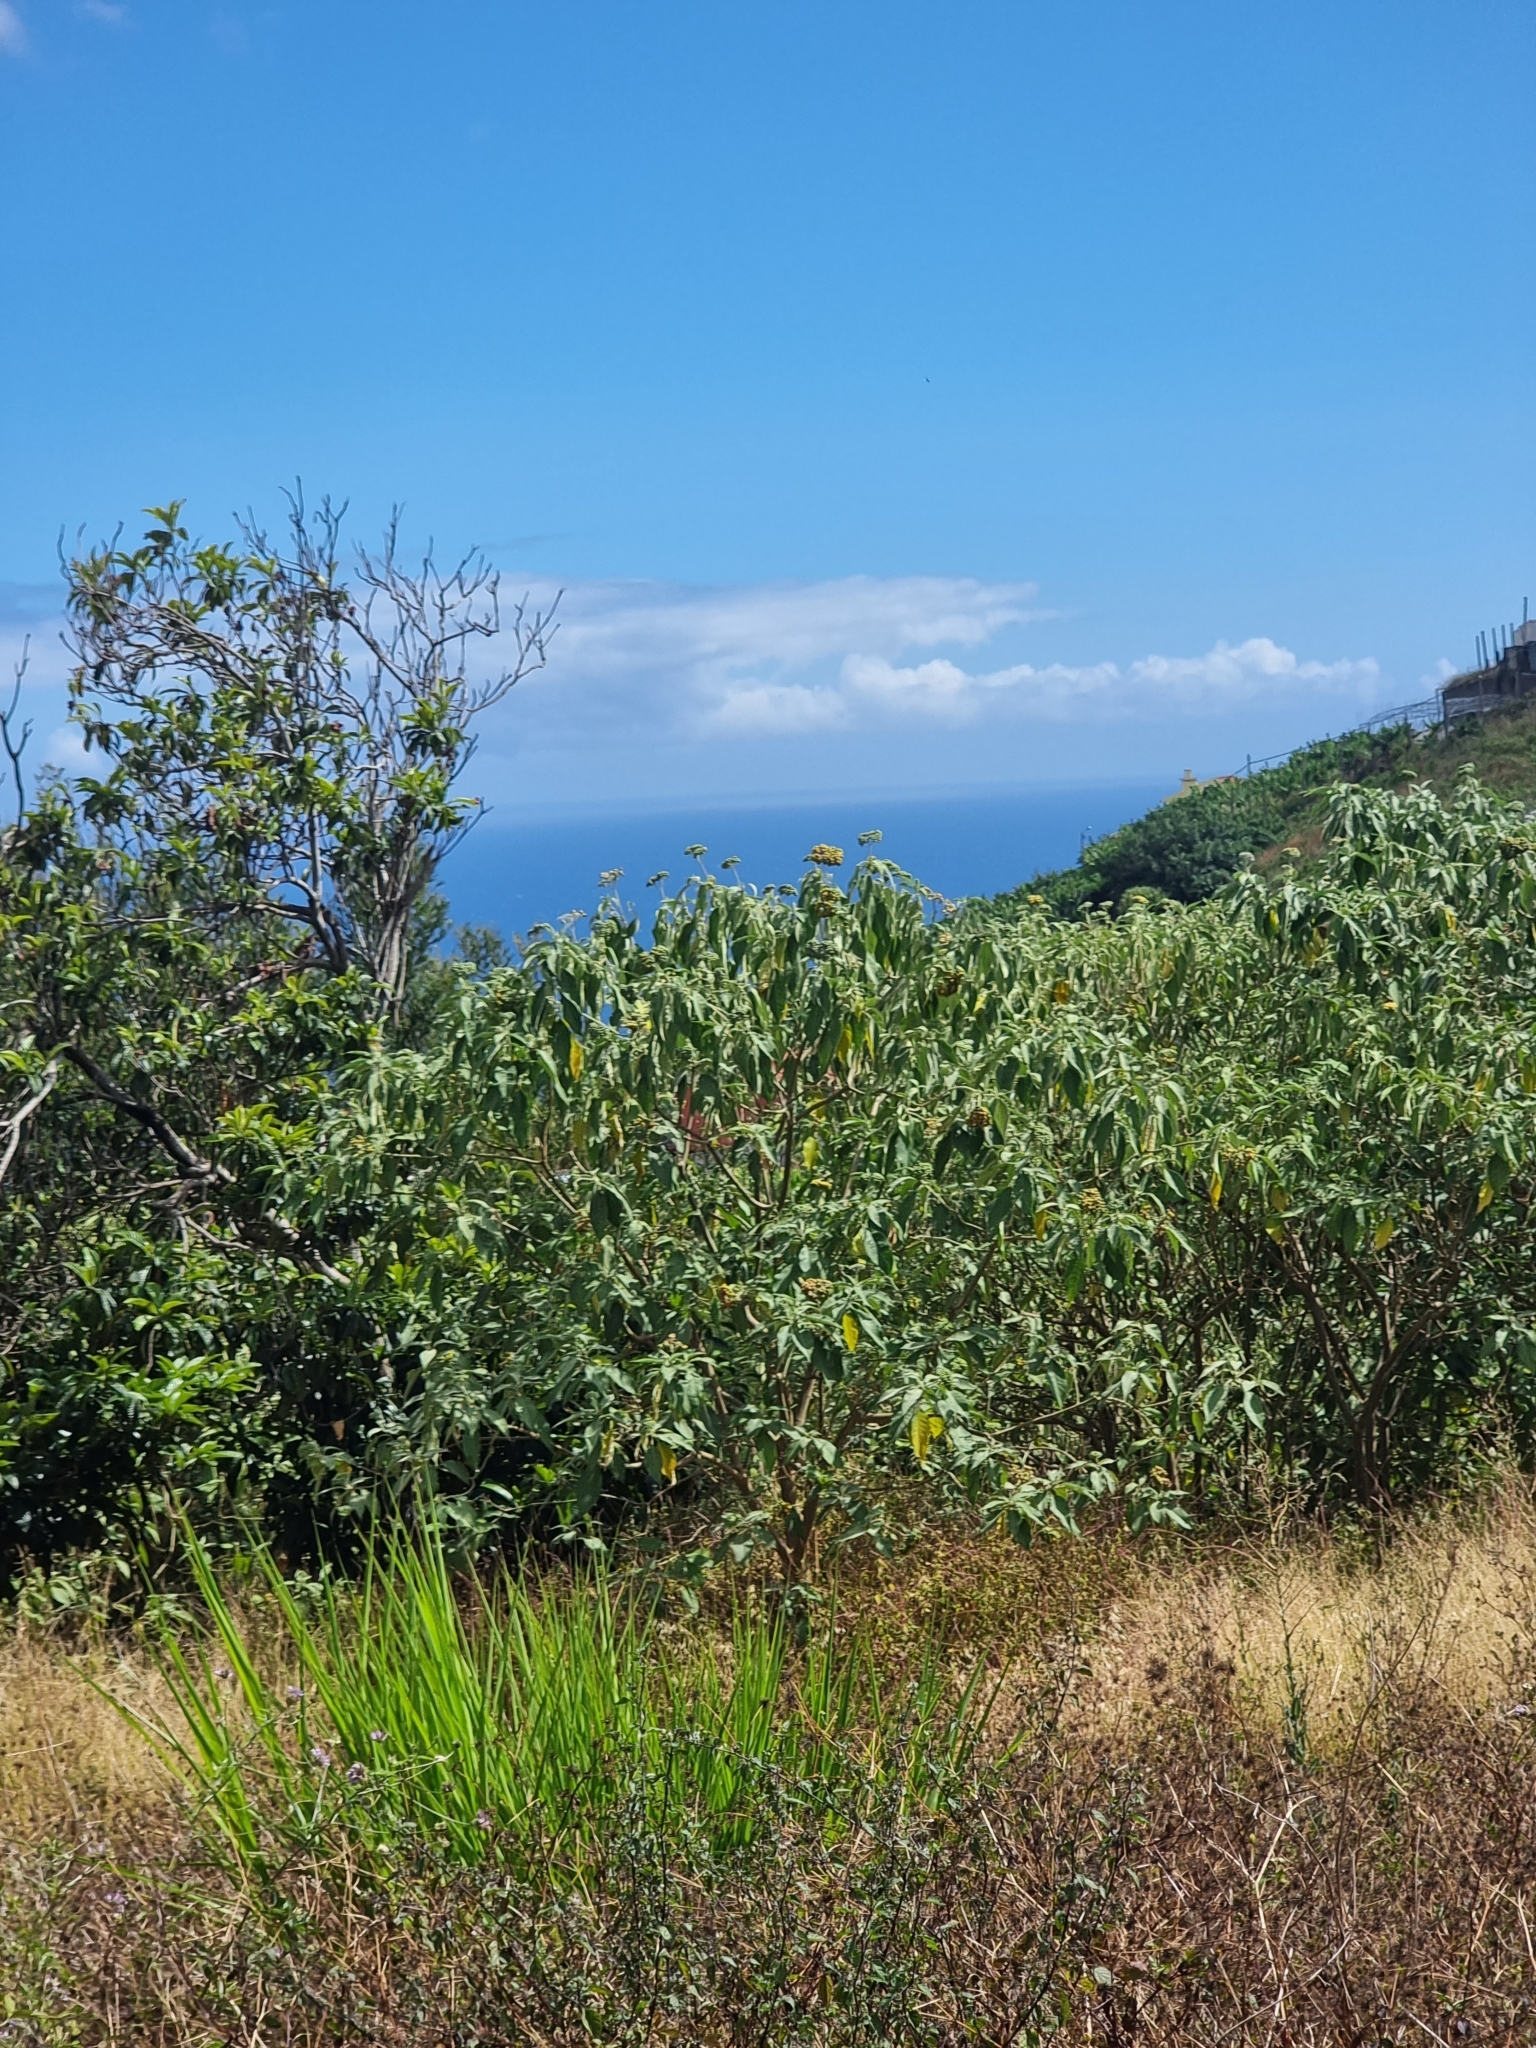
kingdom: Plantae
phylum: Tracheophyta
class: Magnoliopsida
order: Solanales
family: Solanaceae
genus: Solanum
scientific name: Solanum mauritianum
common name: Earleaf nightshade
